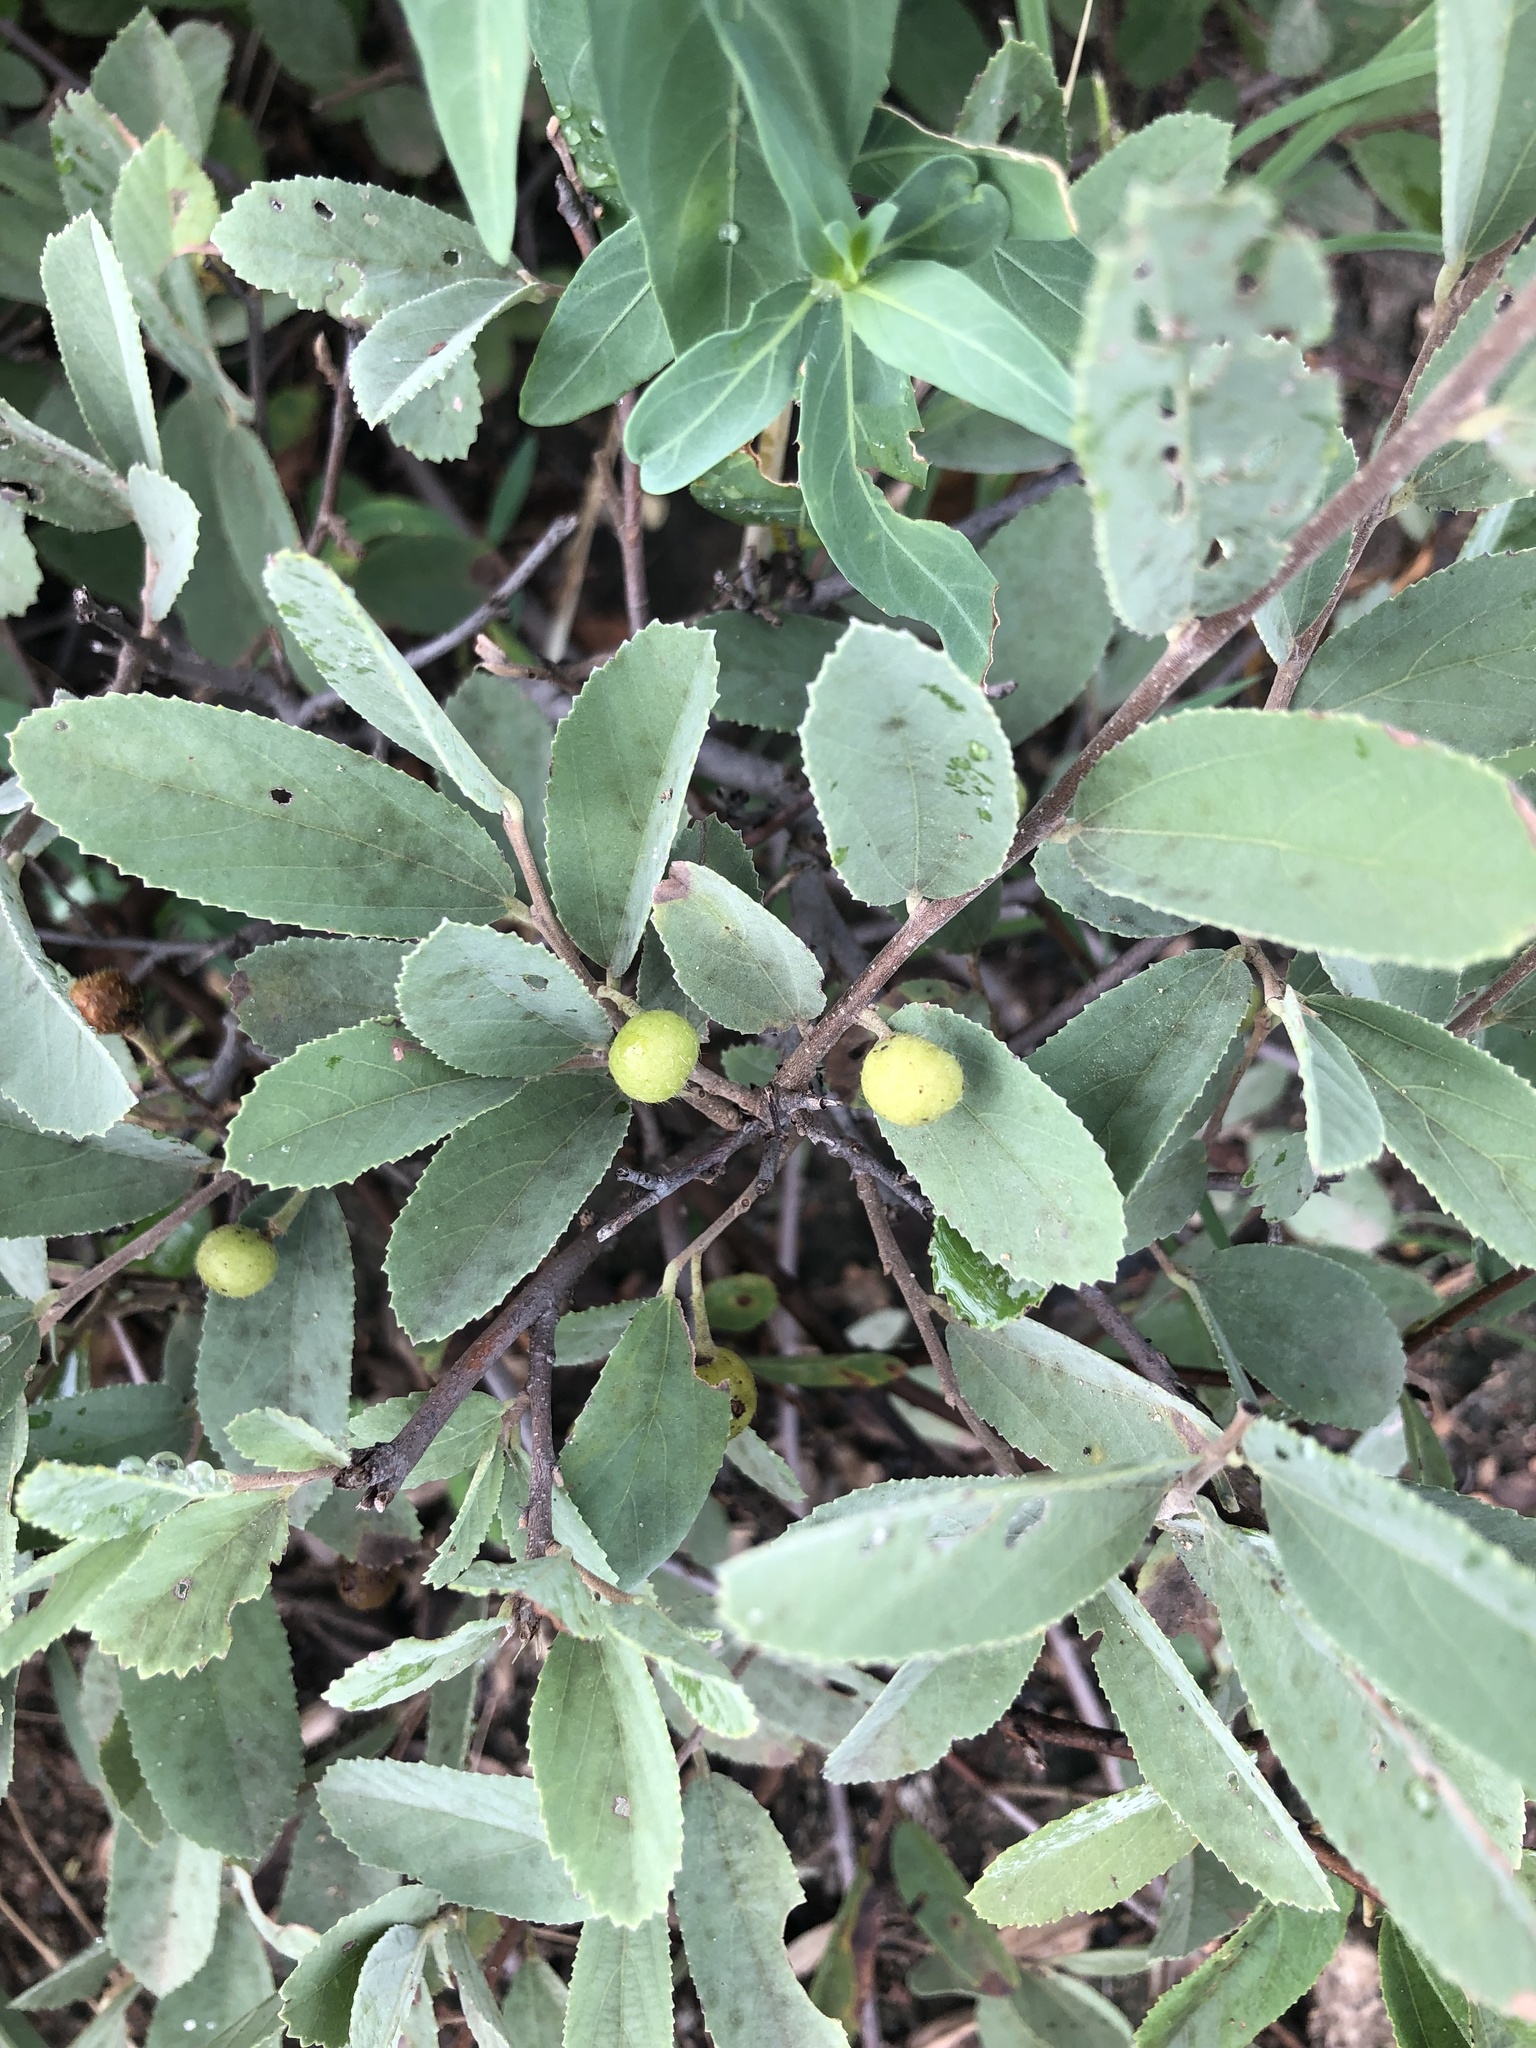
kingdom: Plantae
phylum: Tracheophyta
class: Magnoliopsida
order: Malvales
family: Malvaceae
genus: Grewia
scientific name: Grewia flava
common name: Brandy bush
